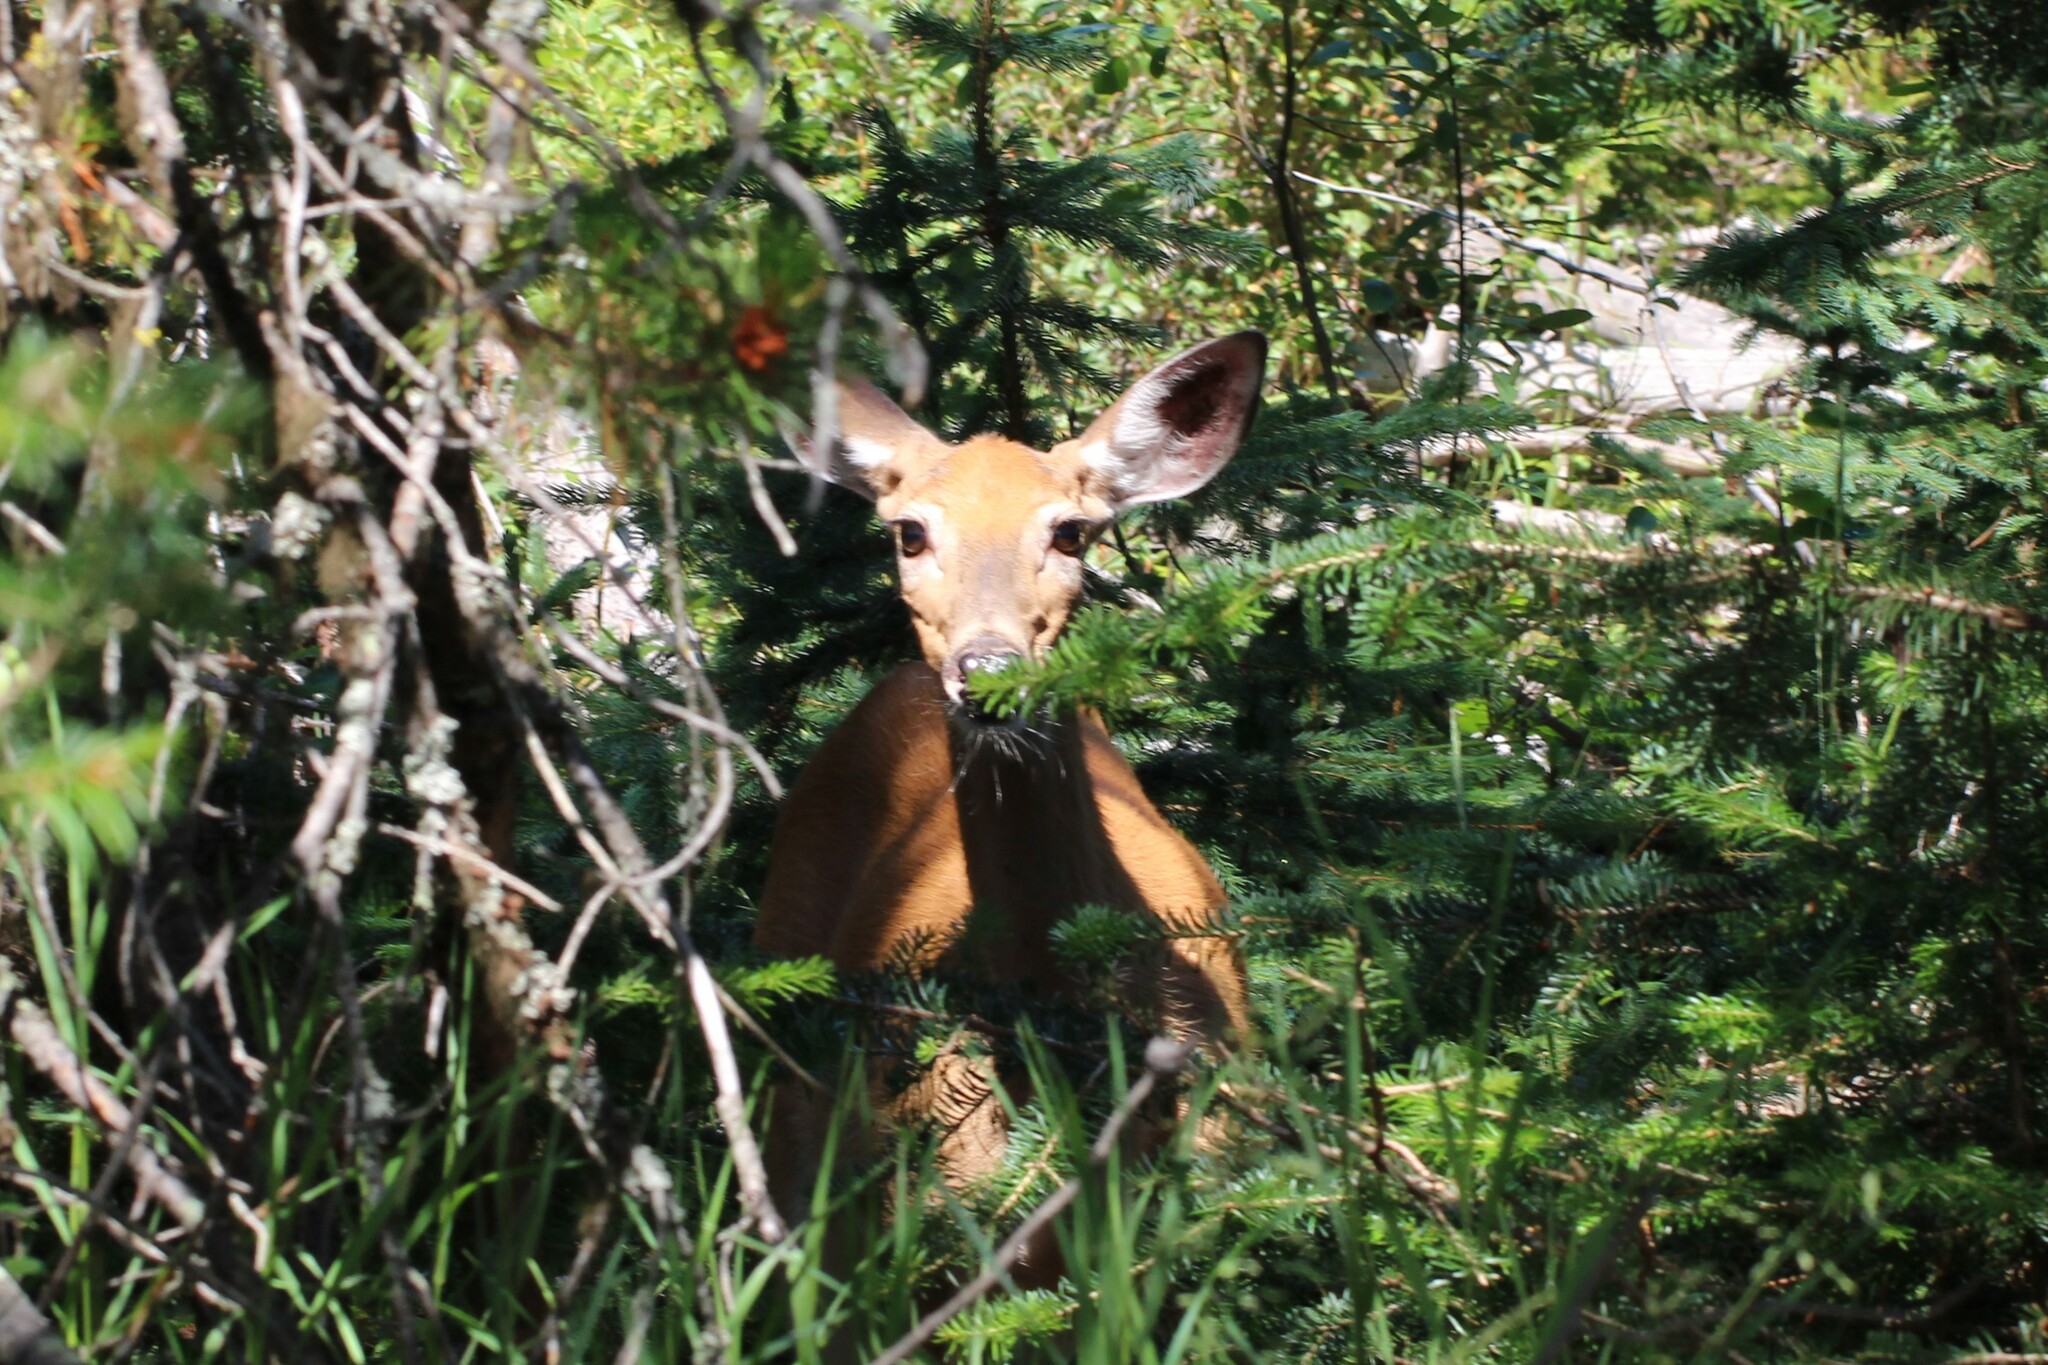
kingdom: Animalia
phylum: Chordata
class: Mammalia
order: Artiodactyla
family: Cervidae
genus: Odocoileus
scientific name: Odocoileus hemionus
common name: Mule deer
